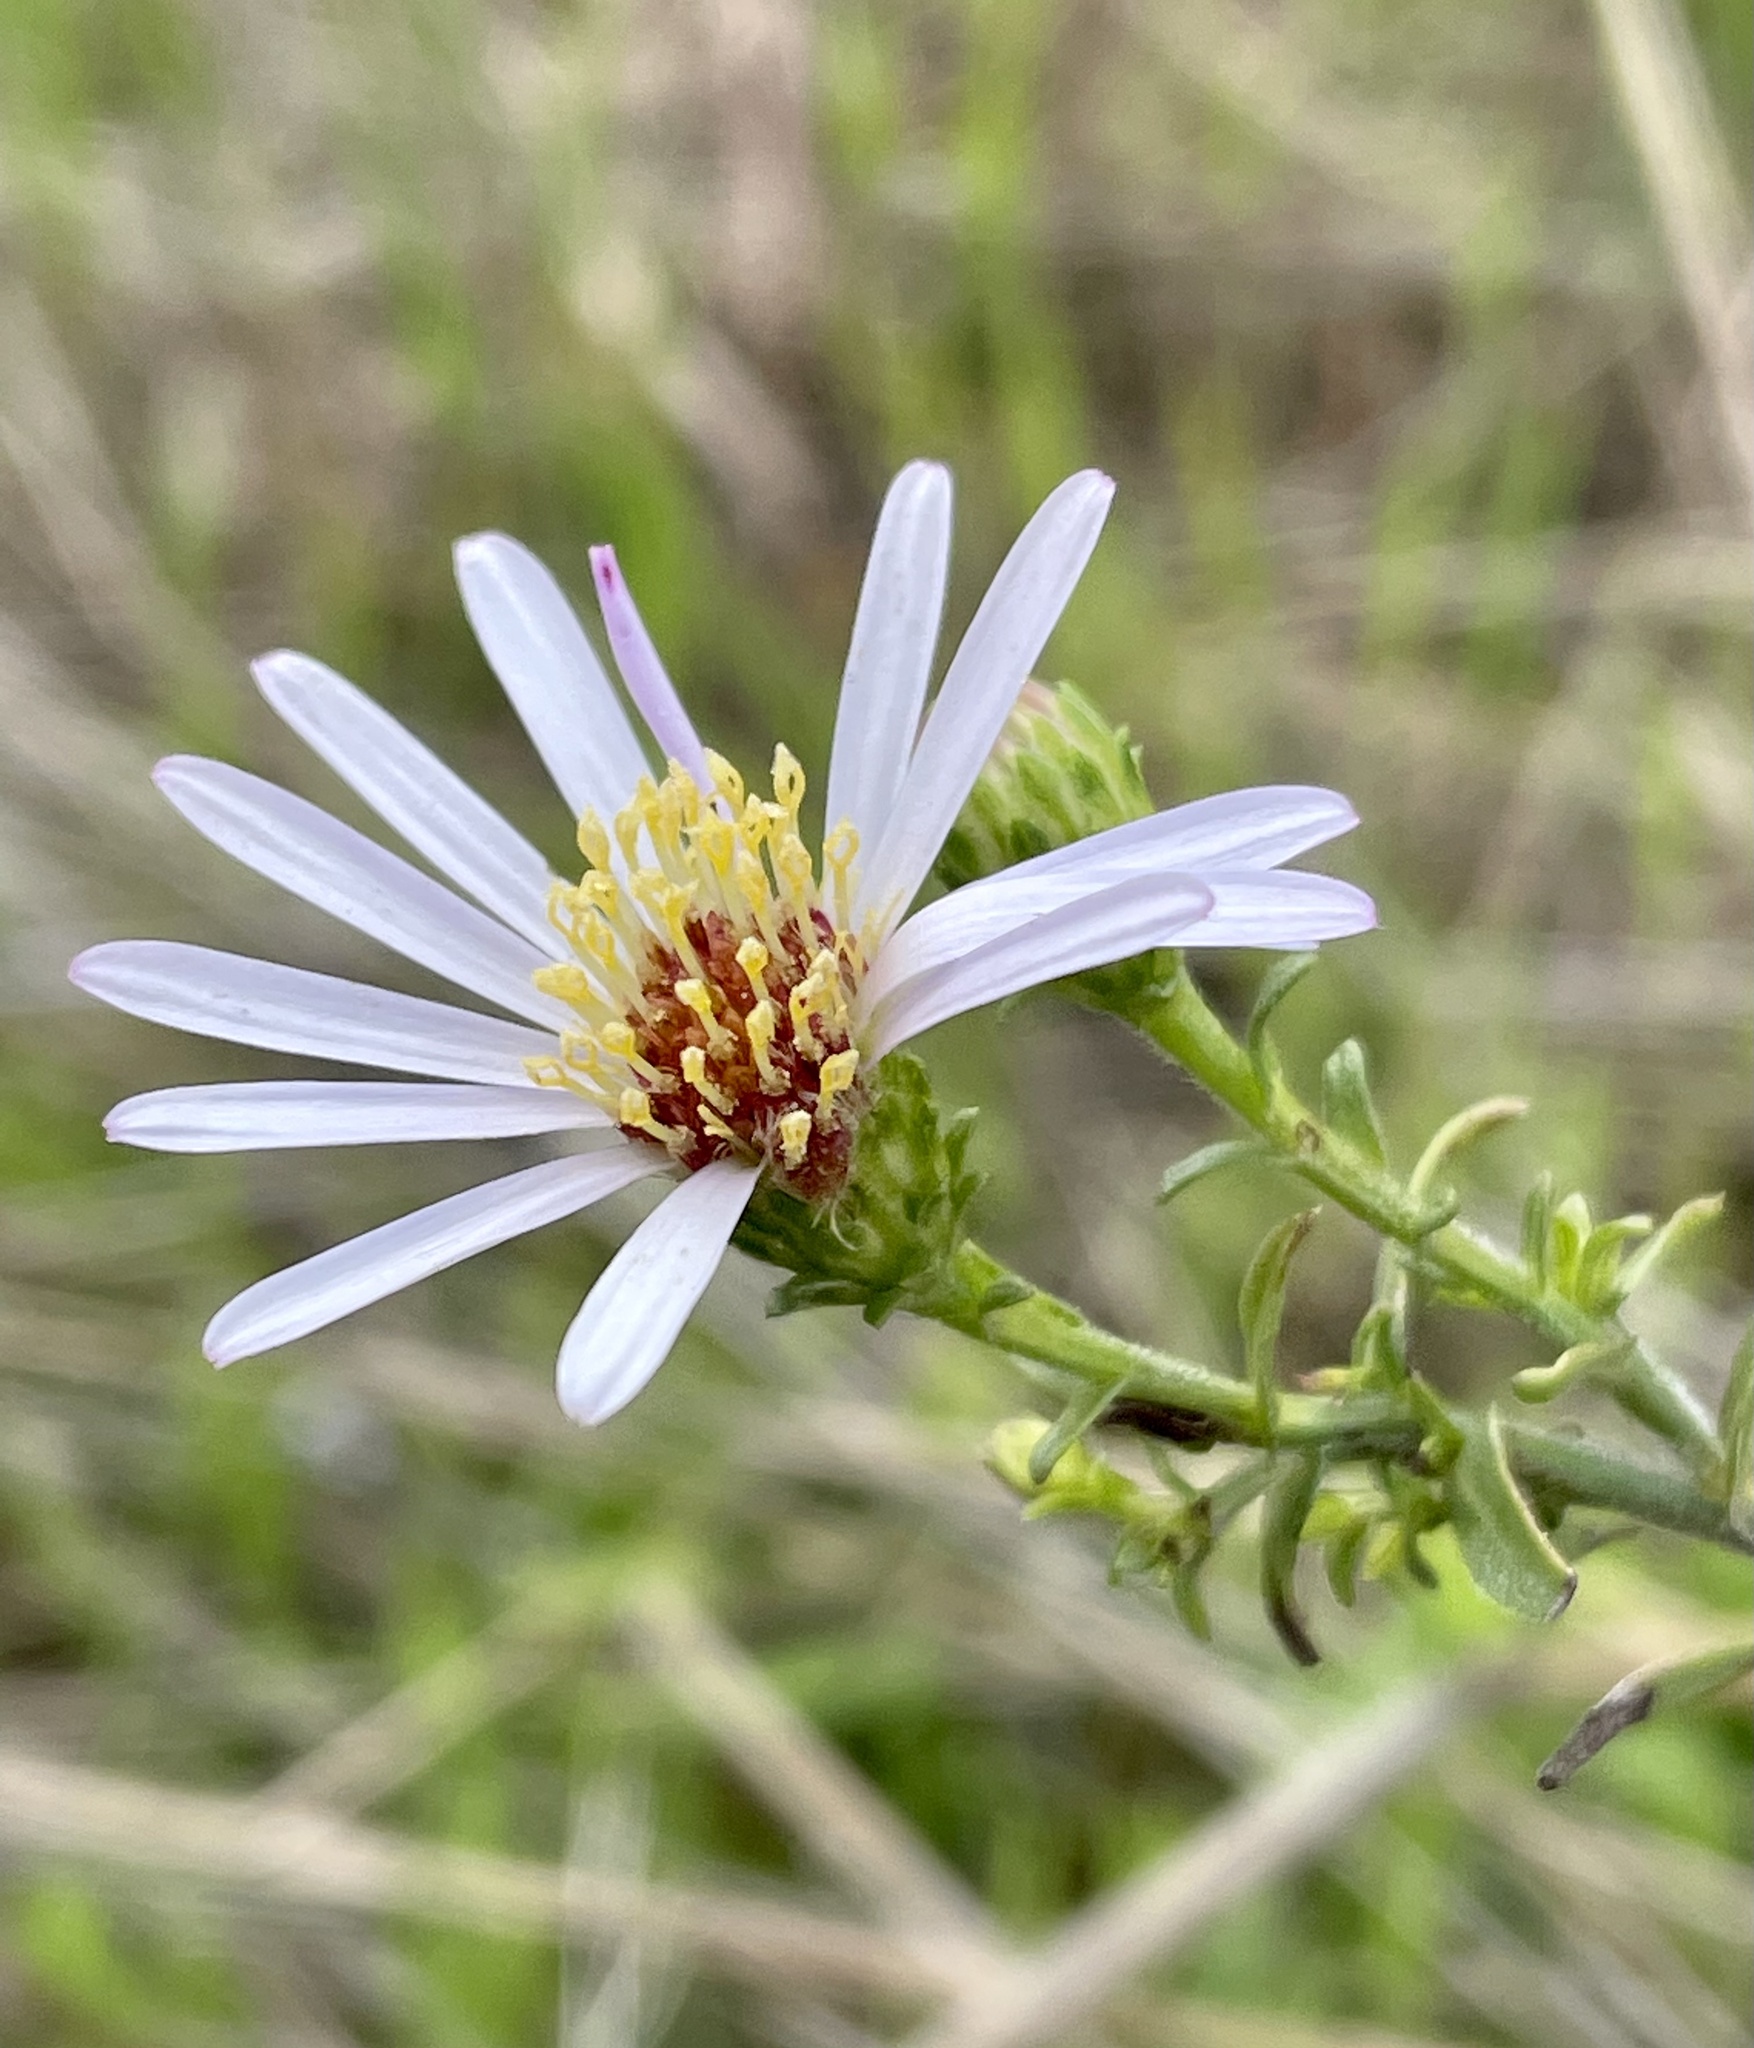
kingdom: Plantae
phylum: Tracheophyta
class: Magnoliopsida
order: Asterales
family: Asteraceae
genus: Symphyotrichum
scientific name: Symphyotrichum chilense
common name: Pacific aster
